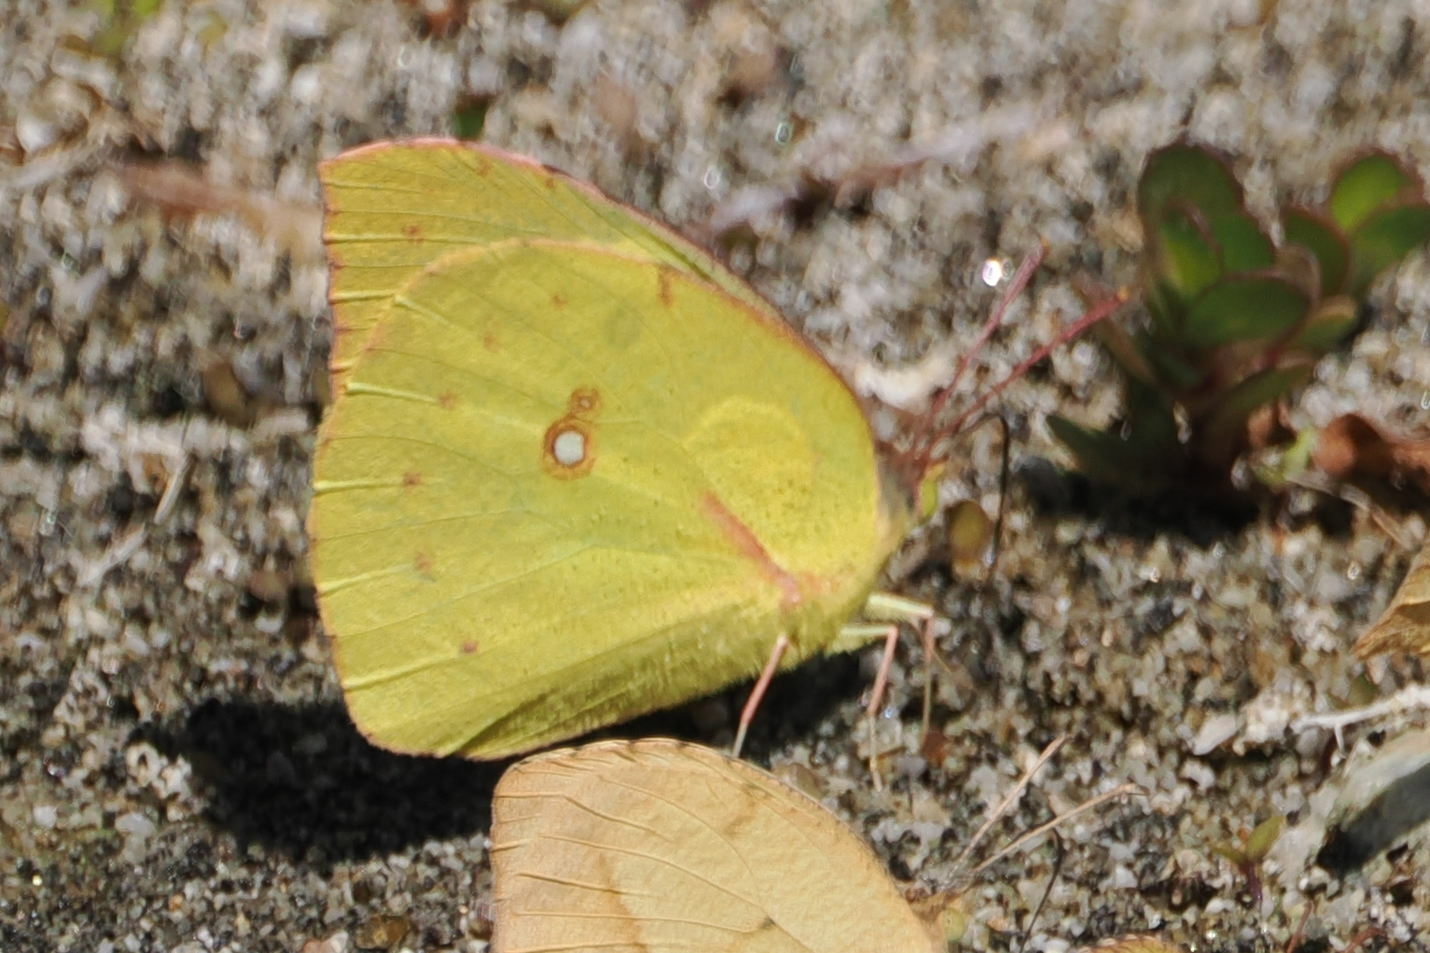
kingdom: Animalia
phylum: Arthropoda
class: Insecta
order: Lepidoptera
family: Pieridae
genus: Zerene
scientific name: Zerene cesonia
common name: Southern dogface
